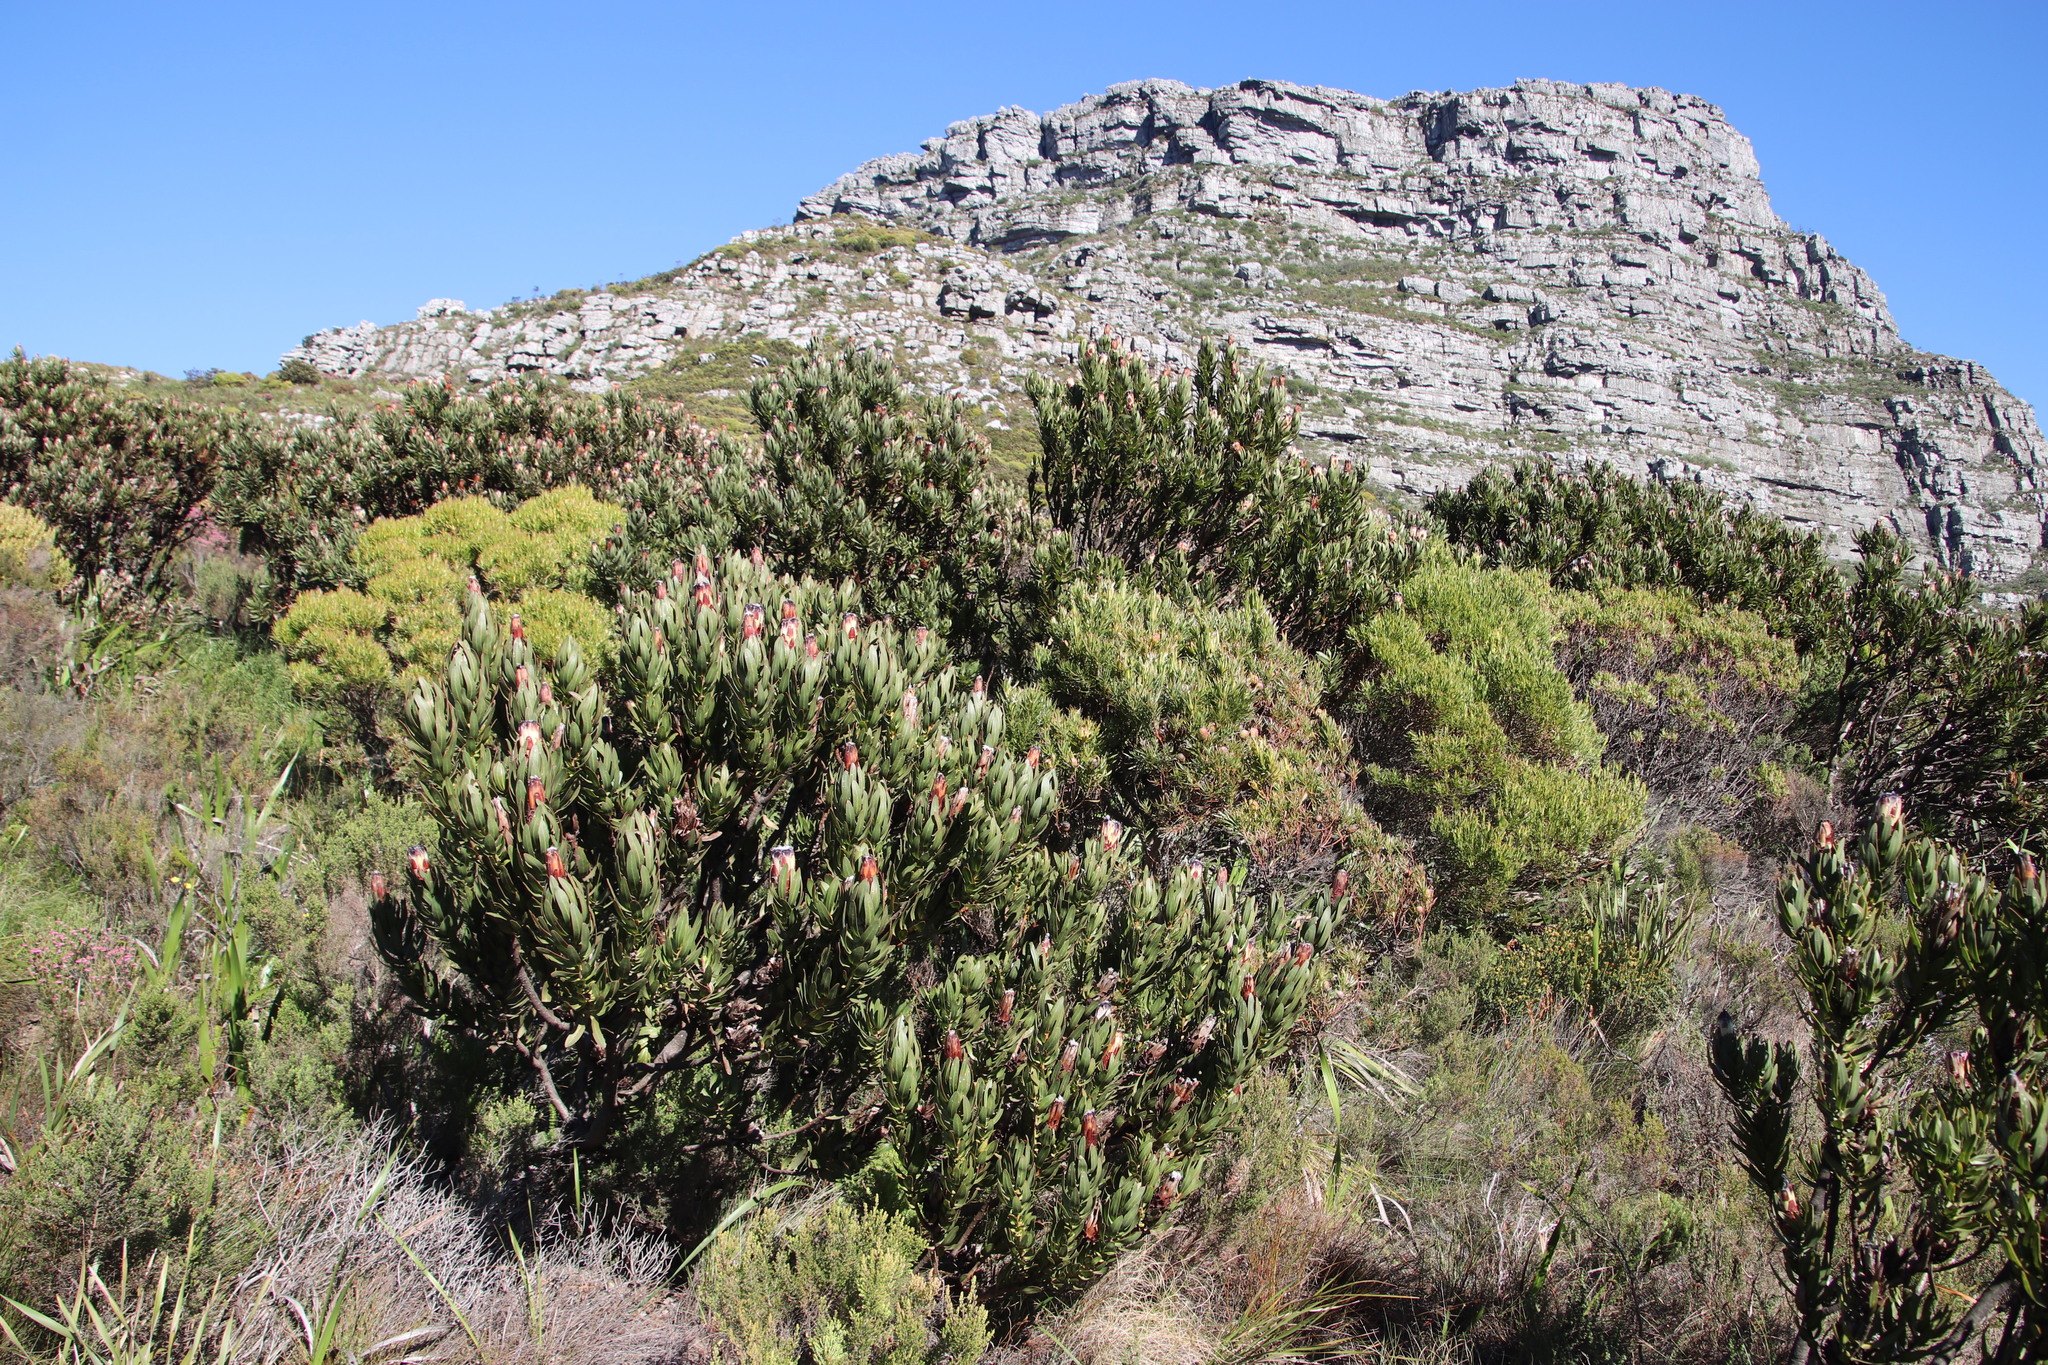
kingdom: Plantae
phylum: Tracheophyta
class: Magnoliopsida
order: Proteales
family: Proteaceae
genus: Protea
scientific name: Protea lepidocarpodendron
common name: Black-bearded protea
